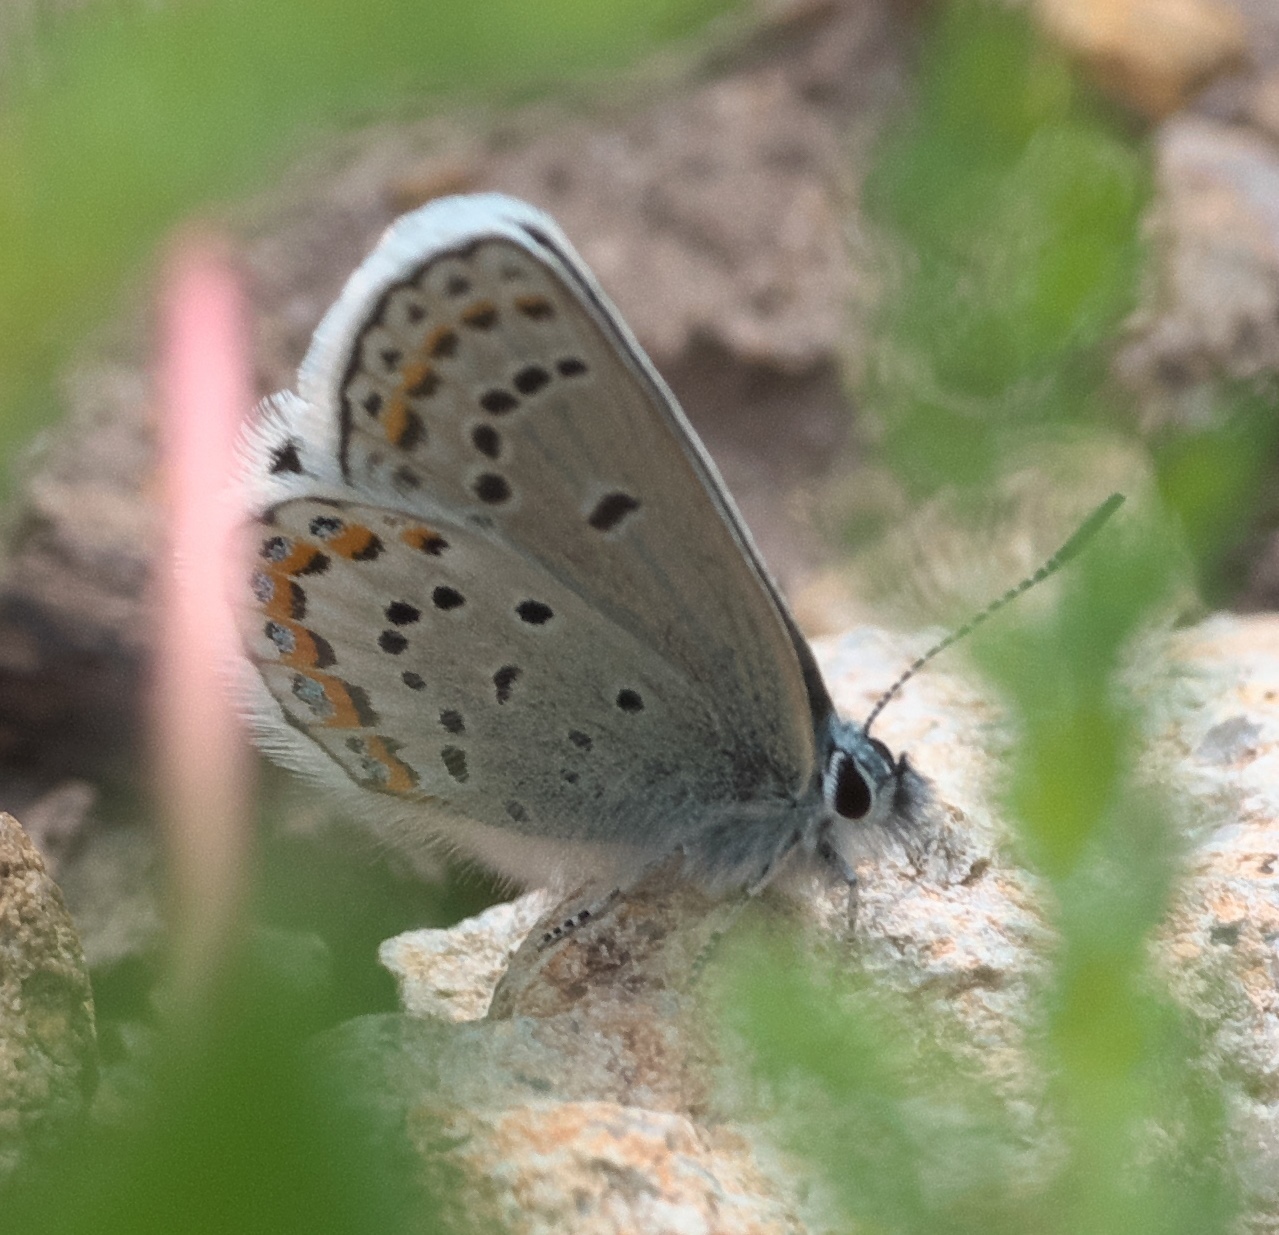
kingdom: Animalia
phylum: Arthropoda
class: Insecta
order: Lepidoptera
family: Lycaenidae
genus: Lycaeides
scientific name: Lycaeides melissa
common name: Melissa blue
